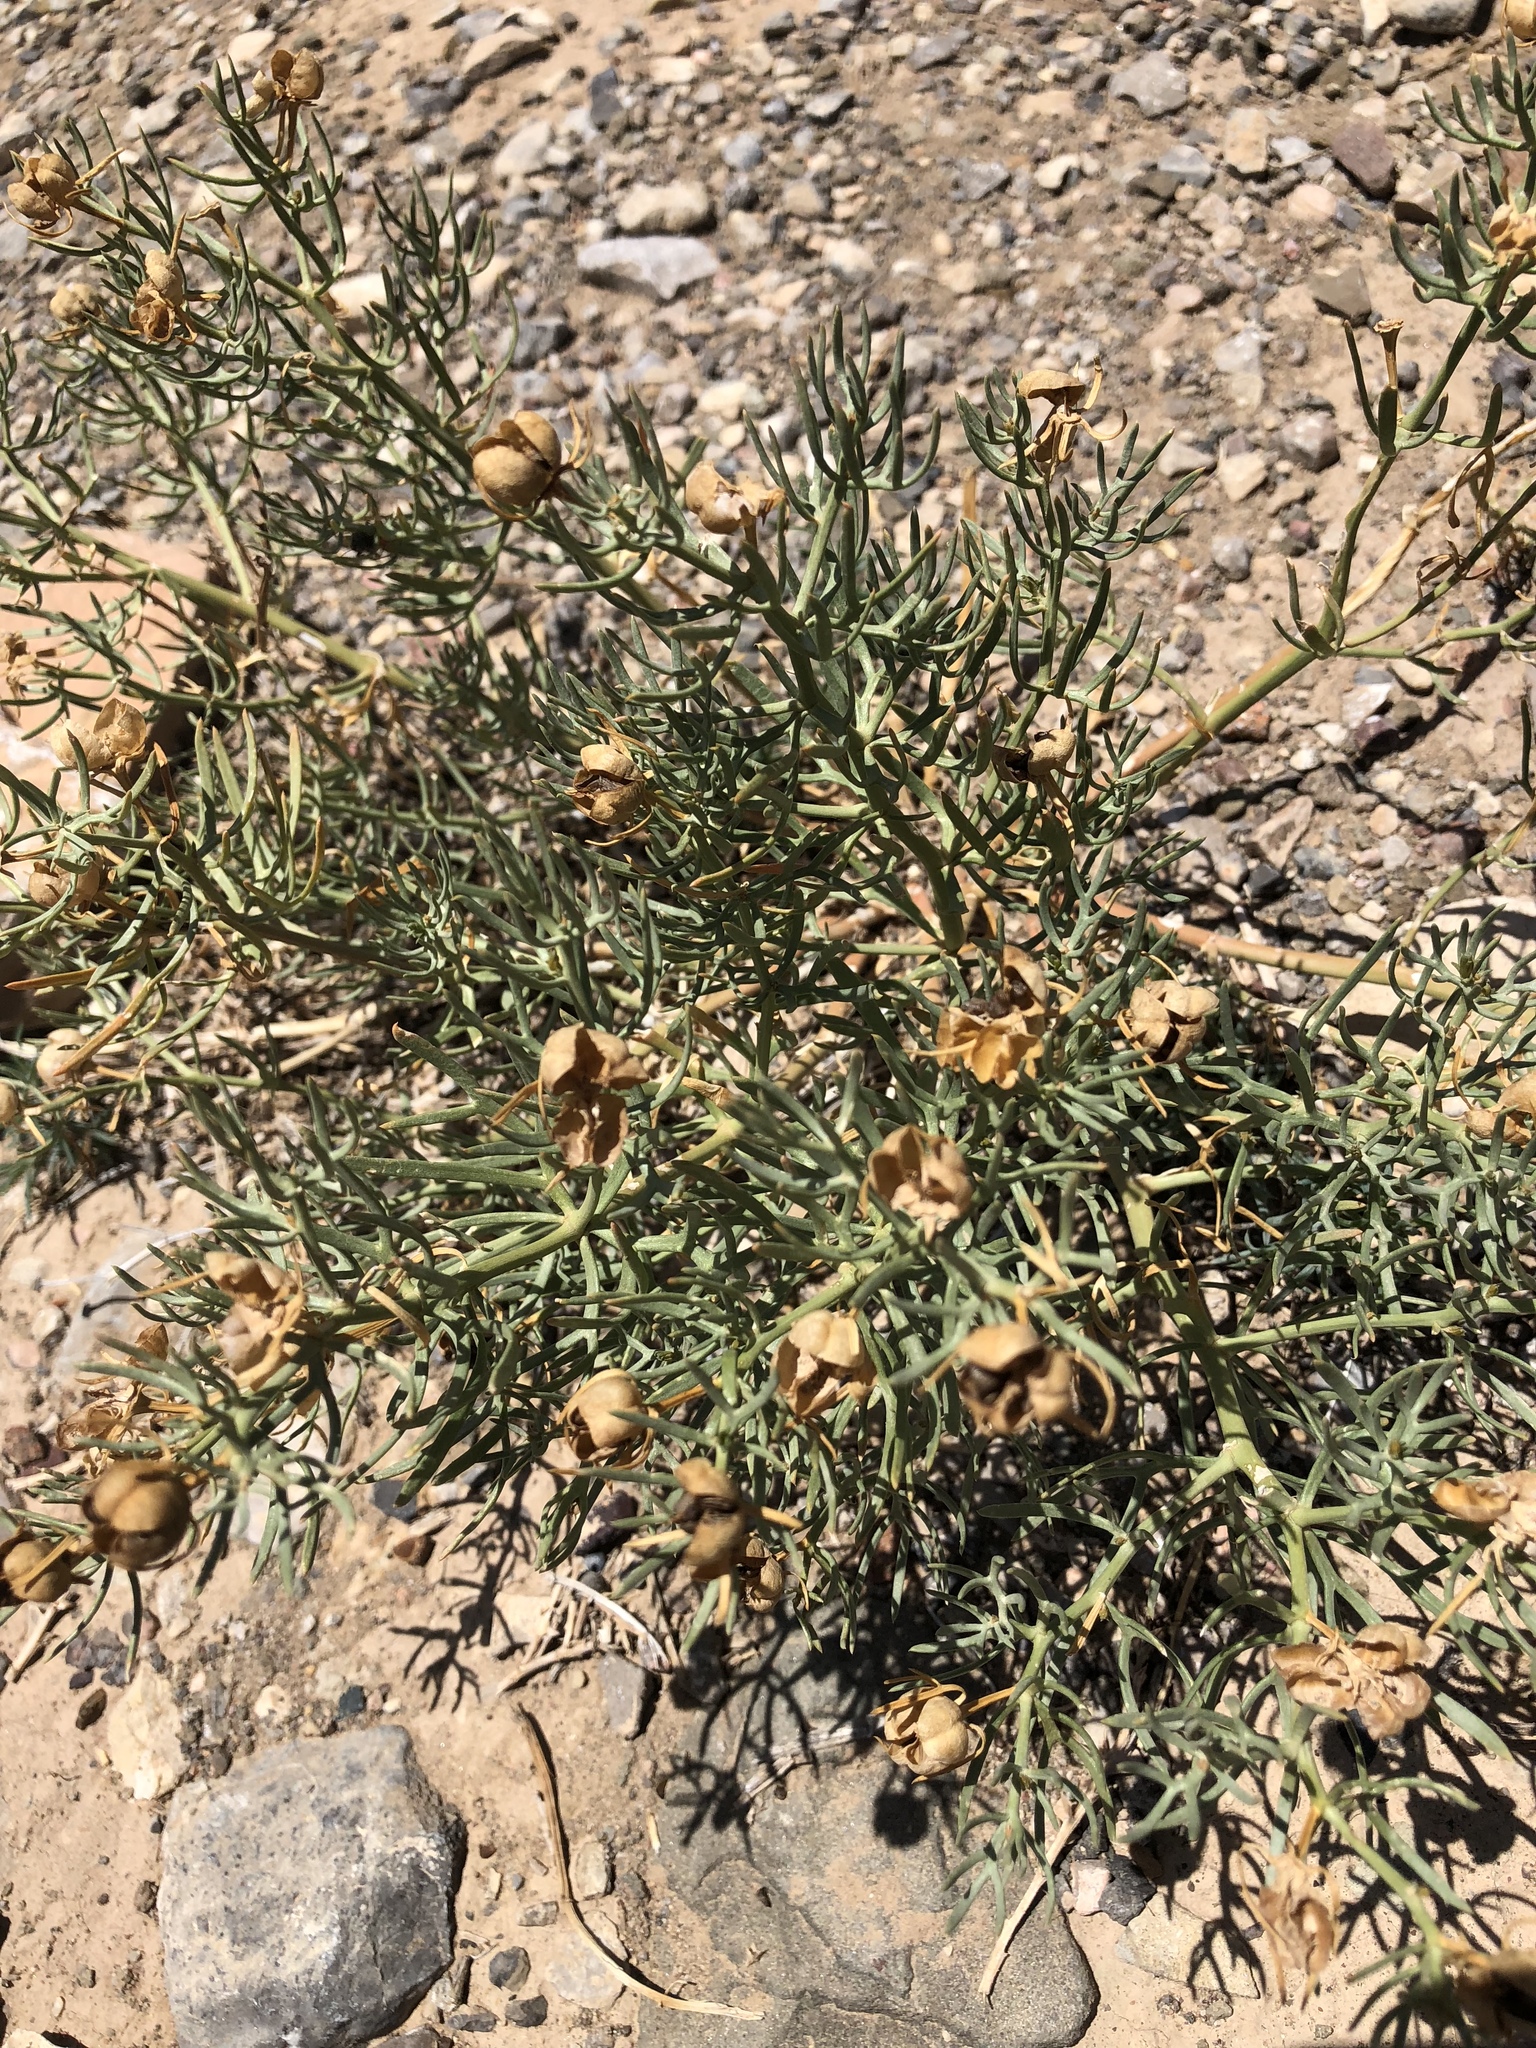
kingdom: Plantae
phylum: Tracheophyta
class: Magnoliopsida
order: Sapindales
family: Tetradiclidaceae
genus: Peganum
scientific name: Peganum harmala
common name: Harmal peganum
